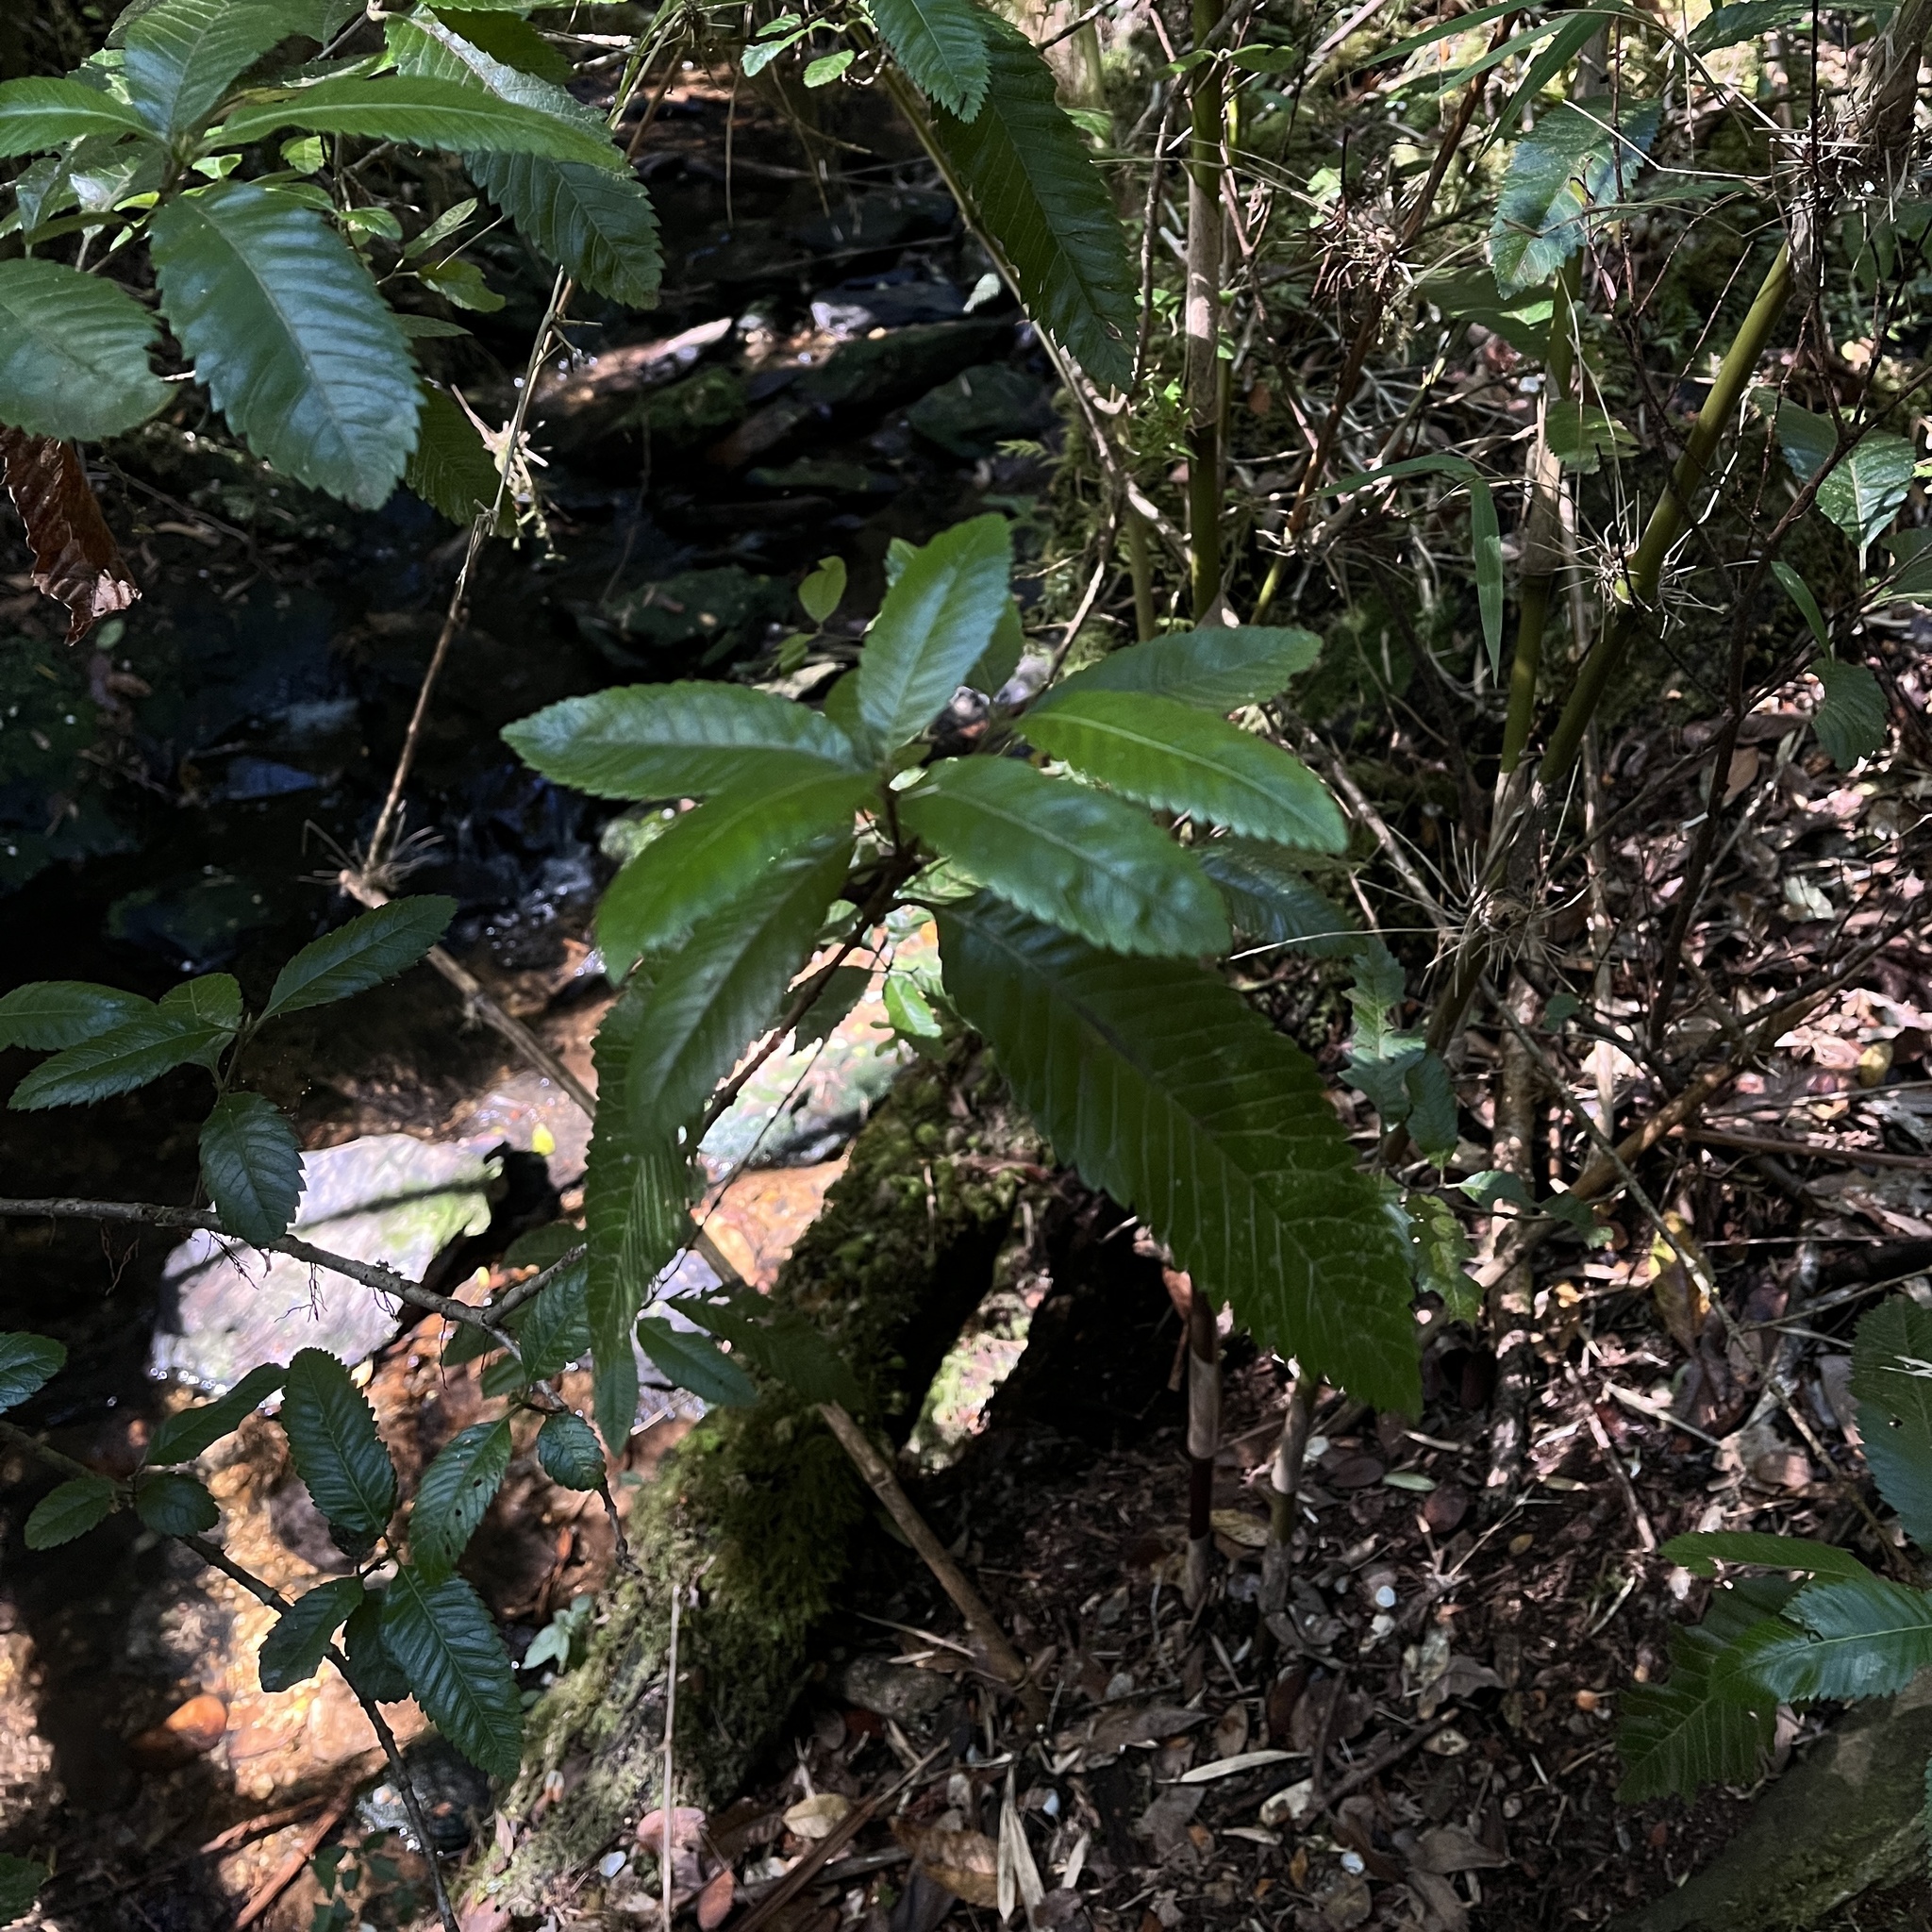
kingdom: Plantae
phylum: Tracheophyta
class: Magnoliopsida
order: Oxalidales
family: Cunoniaceae
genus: Caldcluvia
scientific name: Caldcluvia paniculata
